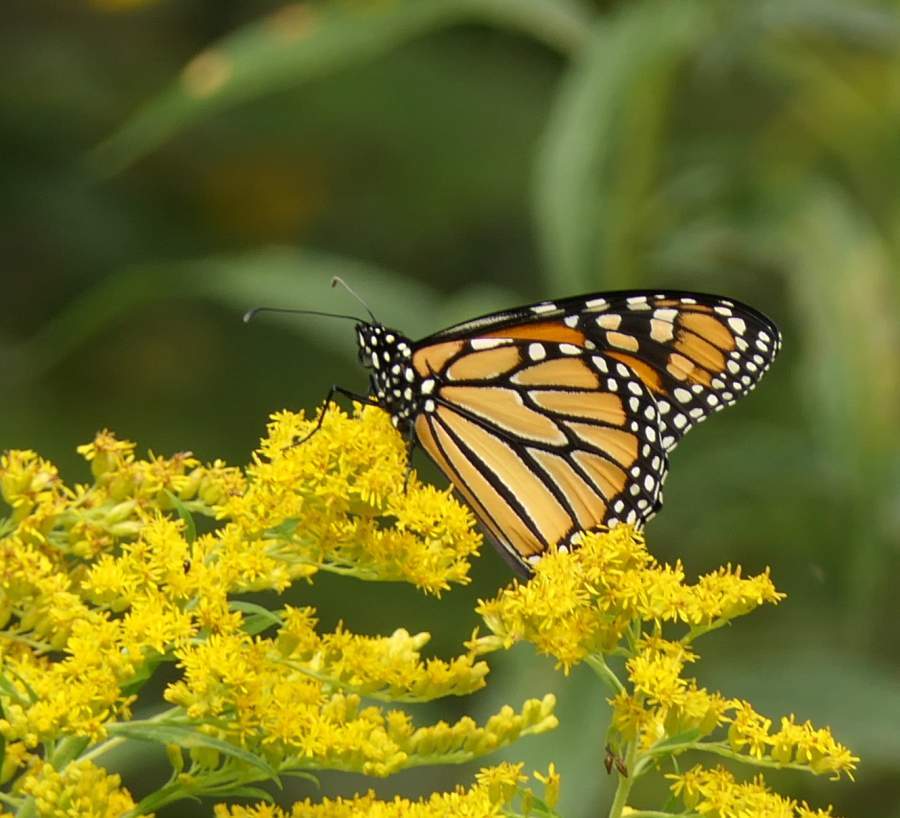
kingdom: Animalia
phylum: Arthropoda
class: Insecta
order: Lepidoptera
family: Nymphalidae
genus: Danaus
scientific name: Danaus plexippus
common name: Monarch
